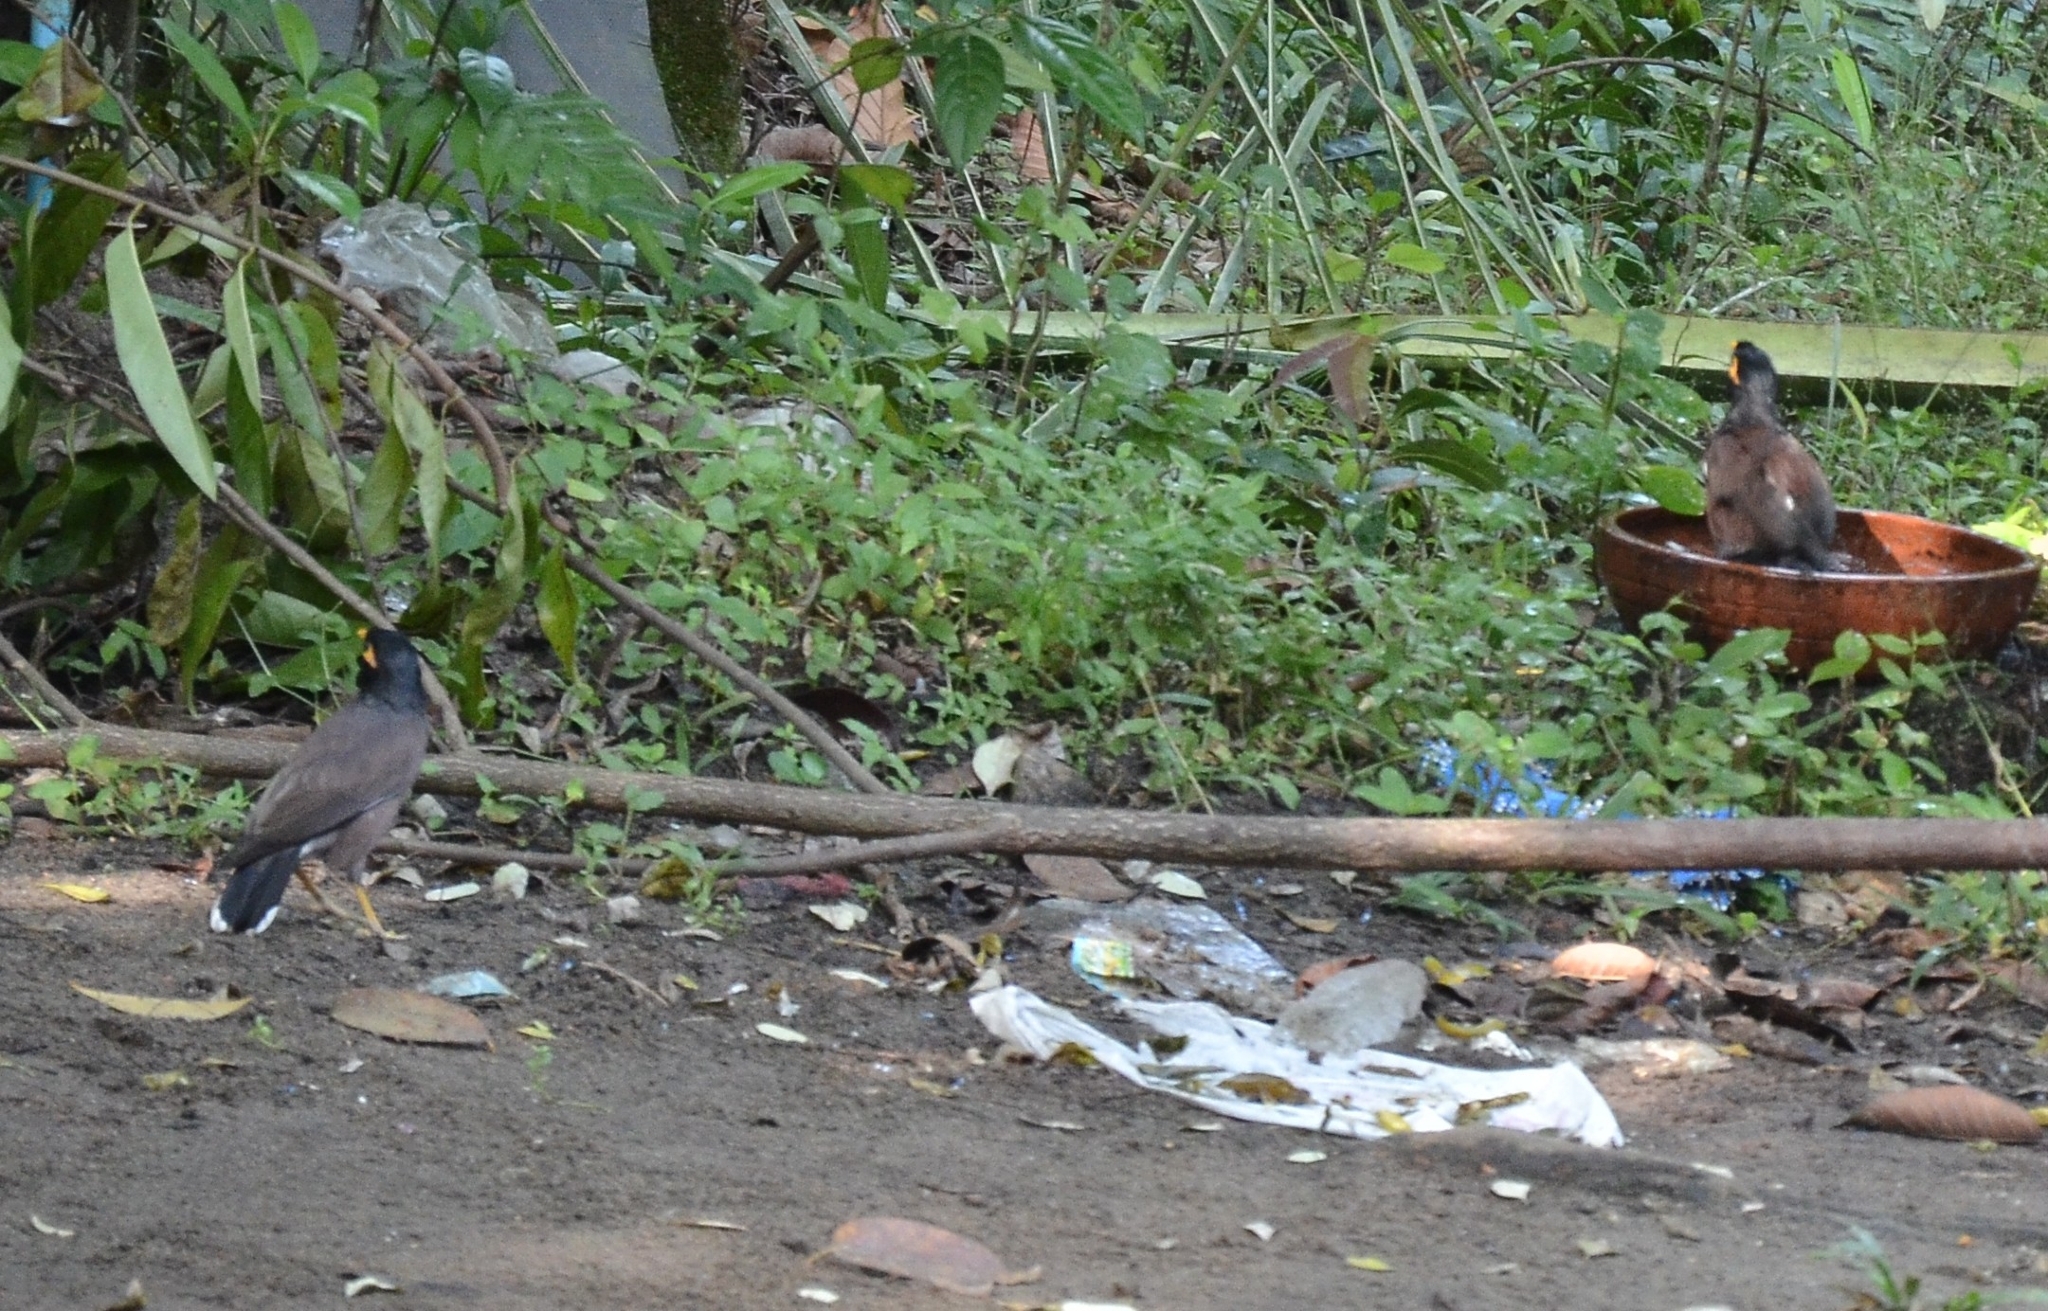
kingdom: Animalia
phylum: Chordata
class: Aves
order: Passeriformes
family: Sturnidae
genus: Acridotheres
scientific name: Acridotheres tristis
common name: Common myna
